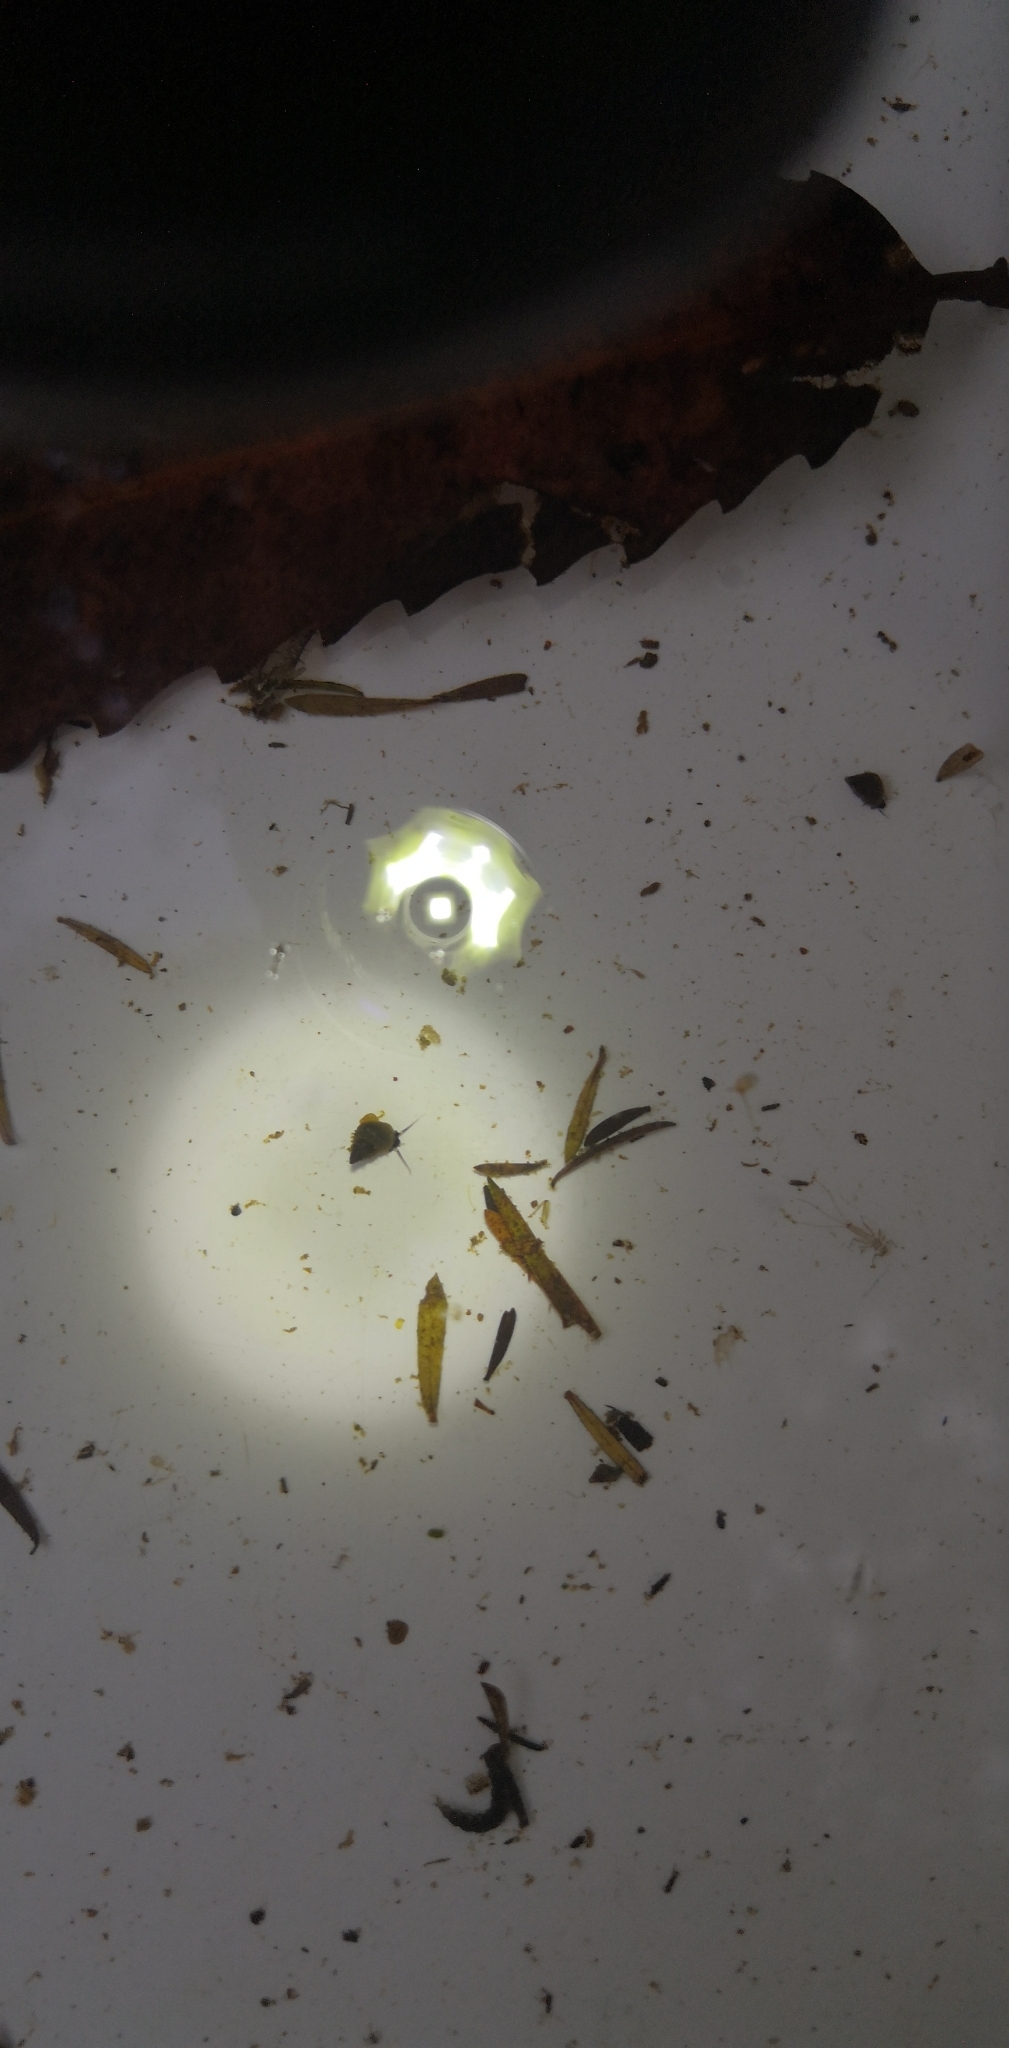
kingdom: Animalia
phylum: Mollusca
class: Gastropoda
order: Littorinimorpha
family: Tateidae
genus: Potamopyrgus
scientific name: Potamopyrgus antipodarum
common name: Jenkins' spire snail
